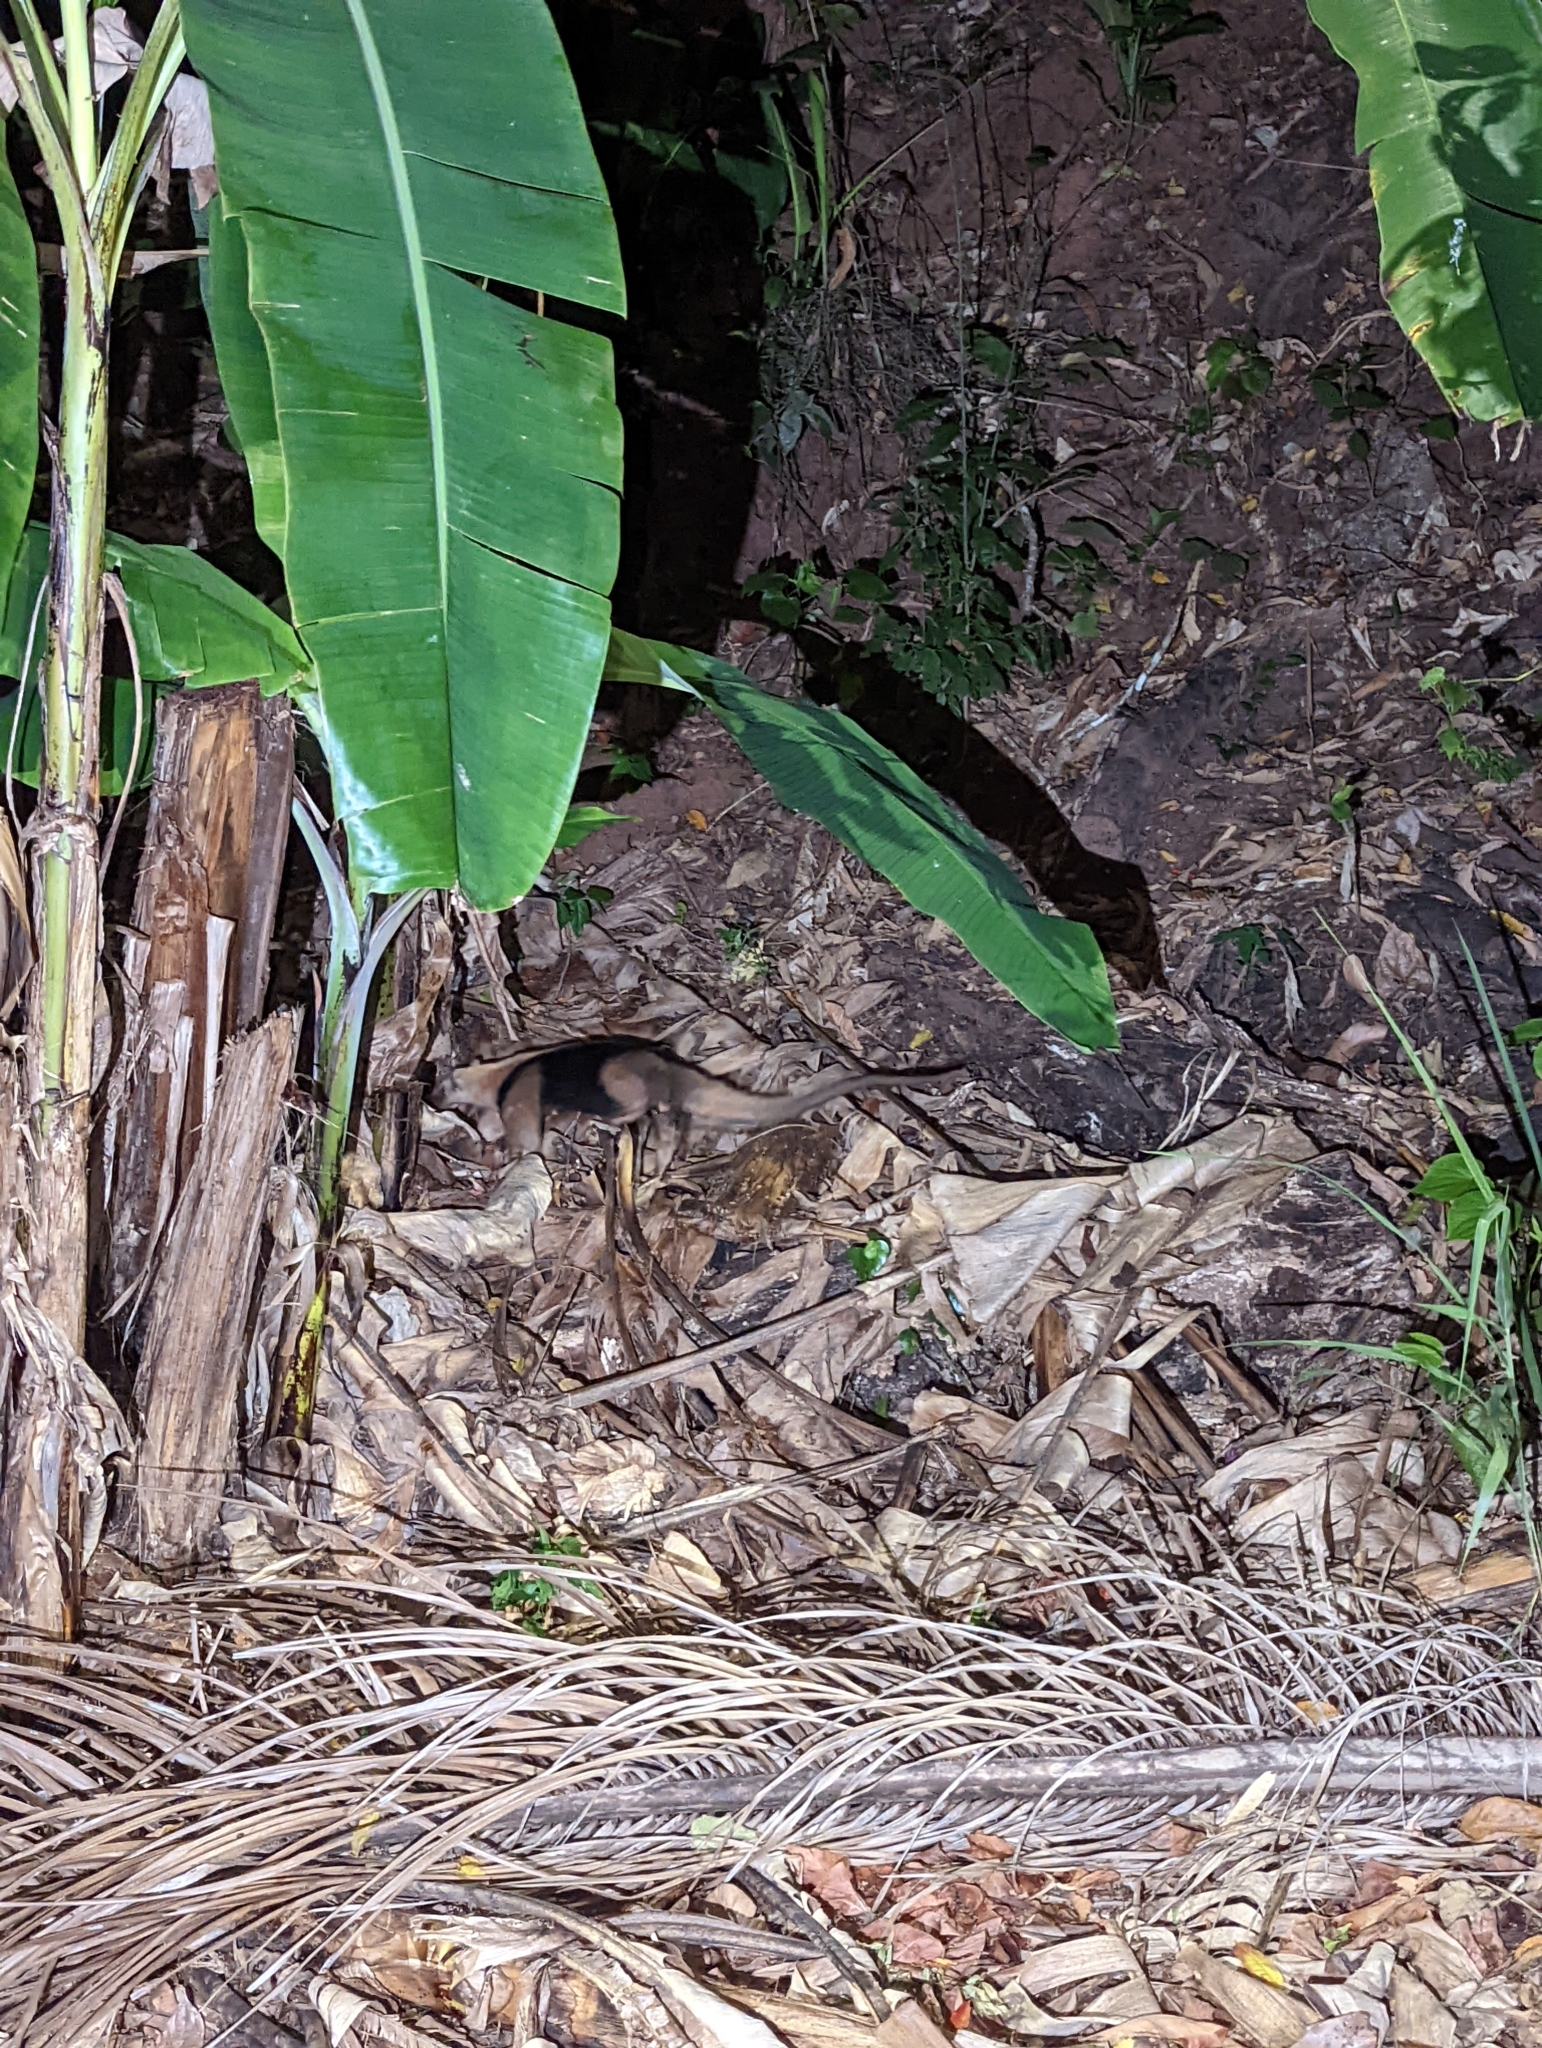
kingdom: Animalia
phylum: Chordata
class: Mammalia
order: Pilosa
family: Myrmecophagidae
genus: Tamandua
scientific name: Tamandua mexicana
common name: Northern tamandua
